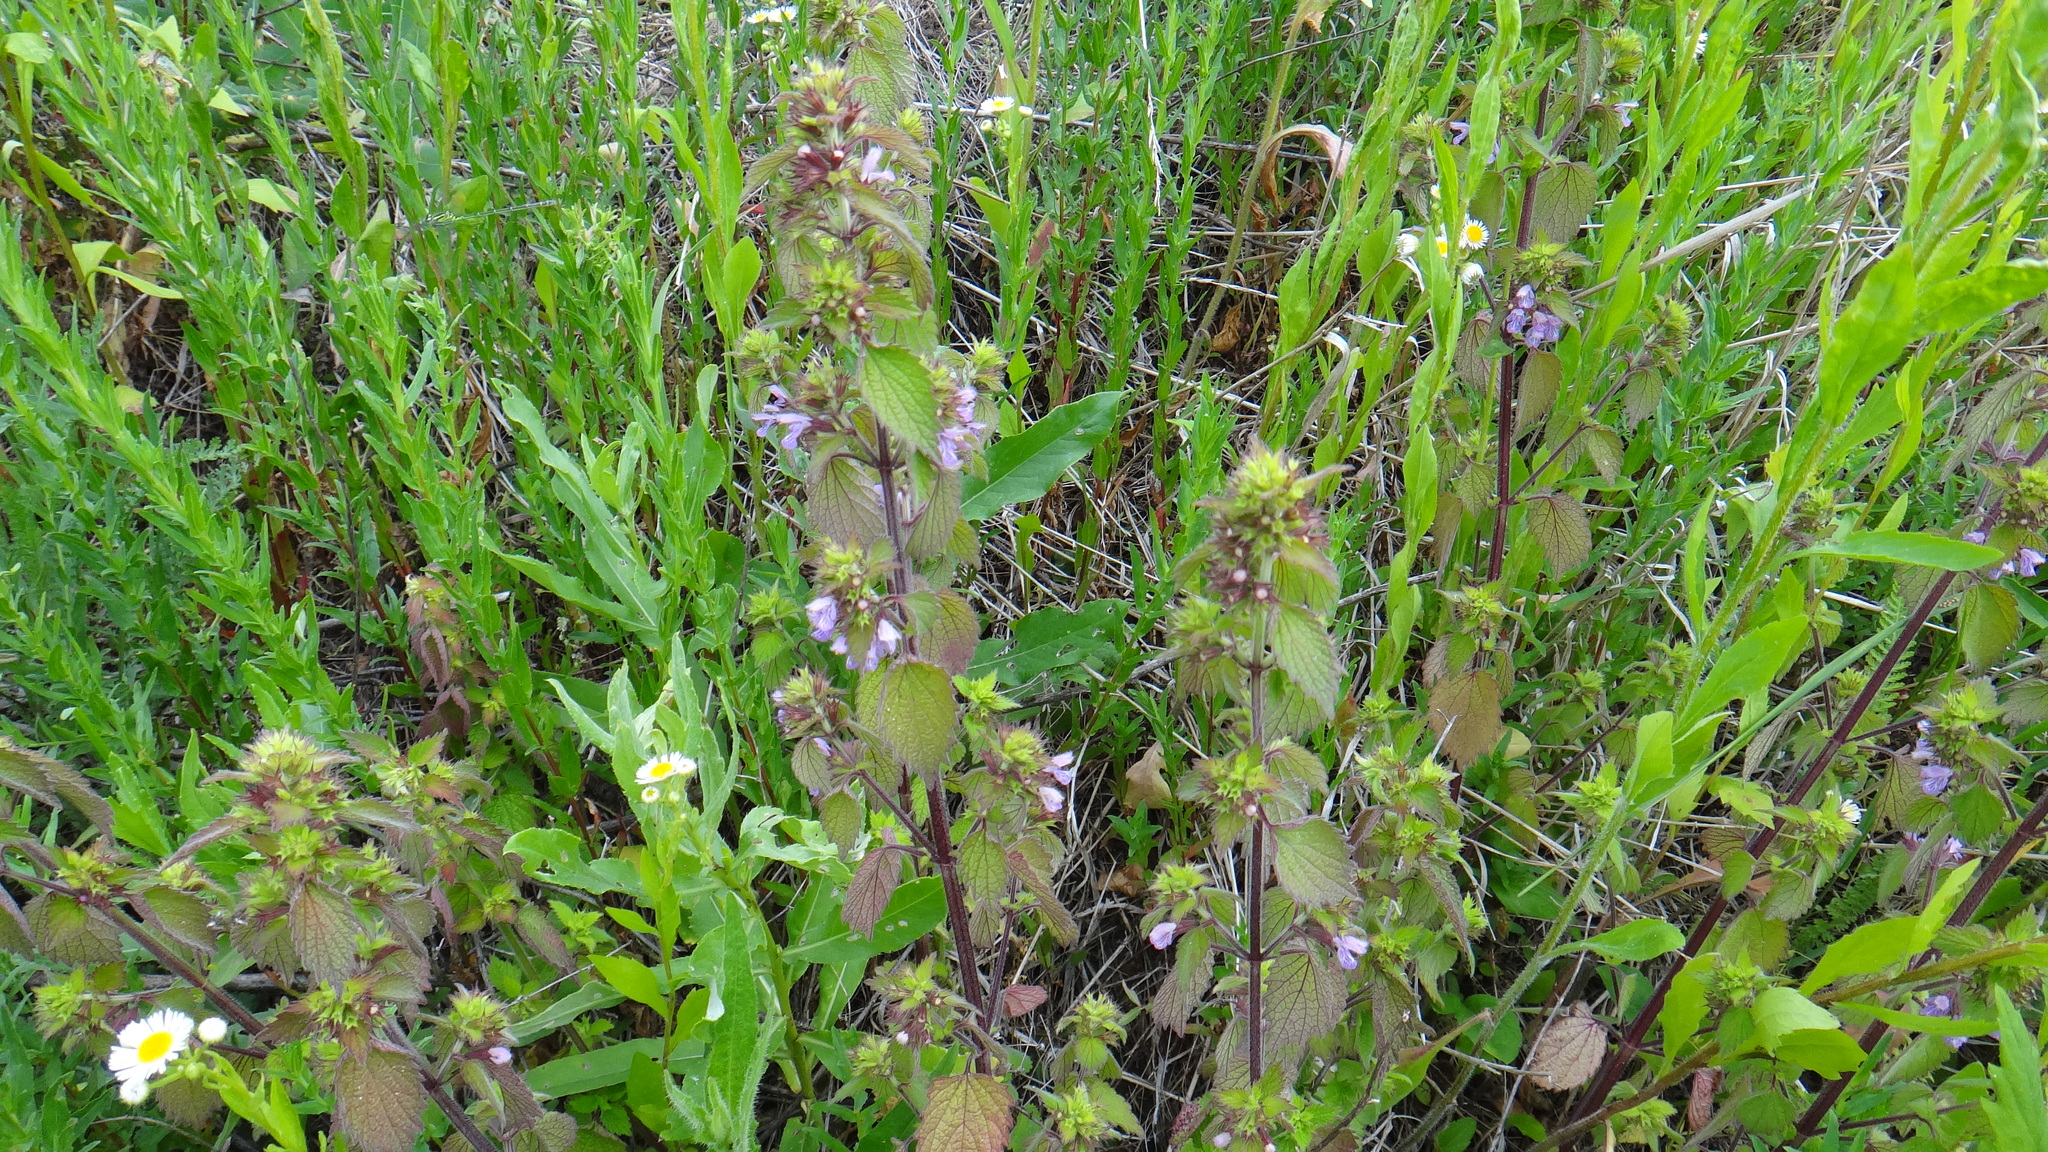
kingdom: Plantae
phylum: Tracheophyta
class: Magnoliopsida
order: Lamiales
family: Lamiaceae
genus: Ballota
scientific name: Ballota nigra
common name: Black horehound
